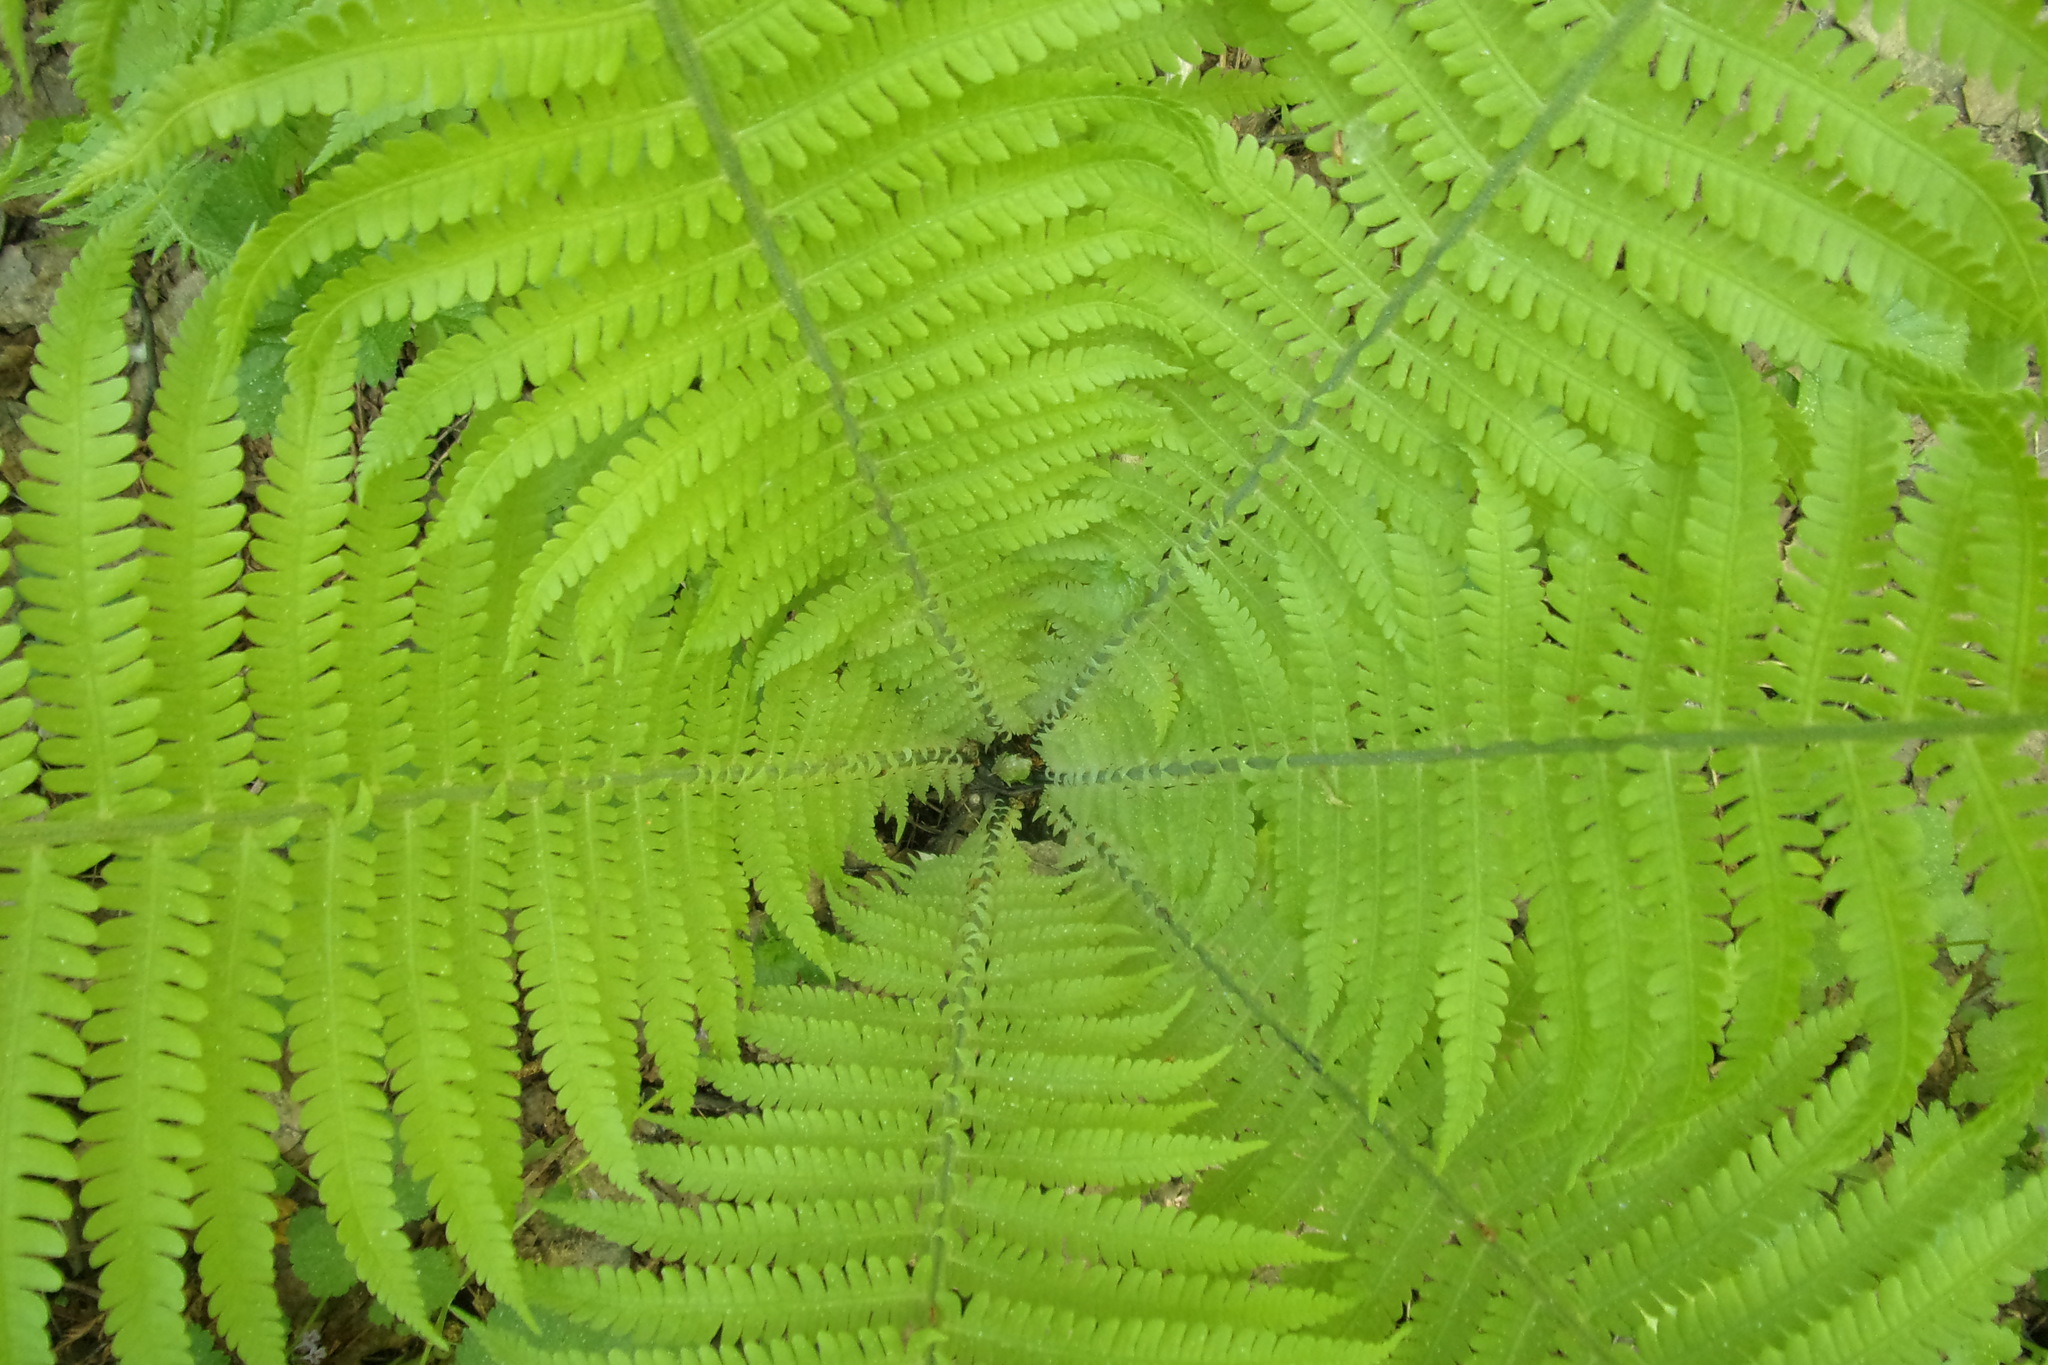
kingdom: Plantae
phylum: Tracheophyta
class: Polypodiopsida
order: Polypodiales
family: Onocleaceae
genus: Matteuccia
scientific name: Matteuccia struthiopteris
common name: Ostrich fern
